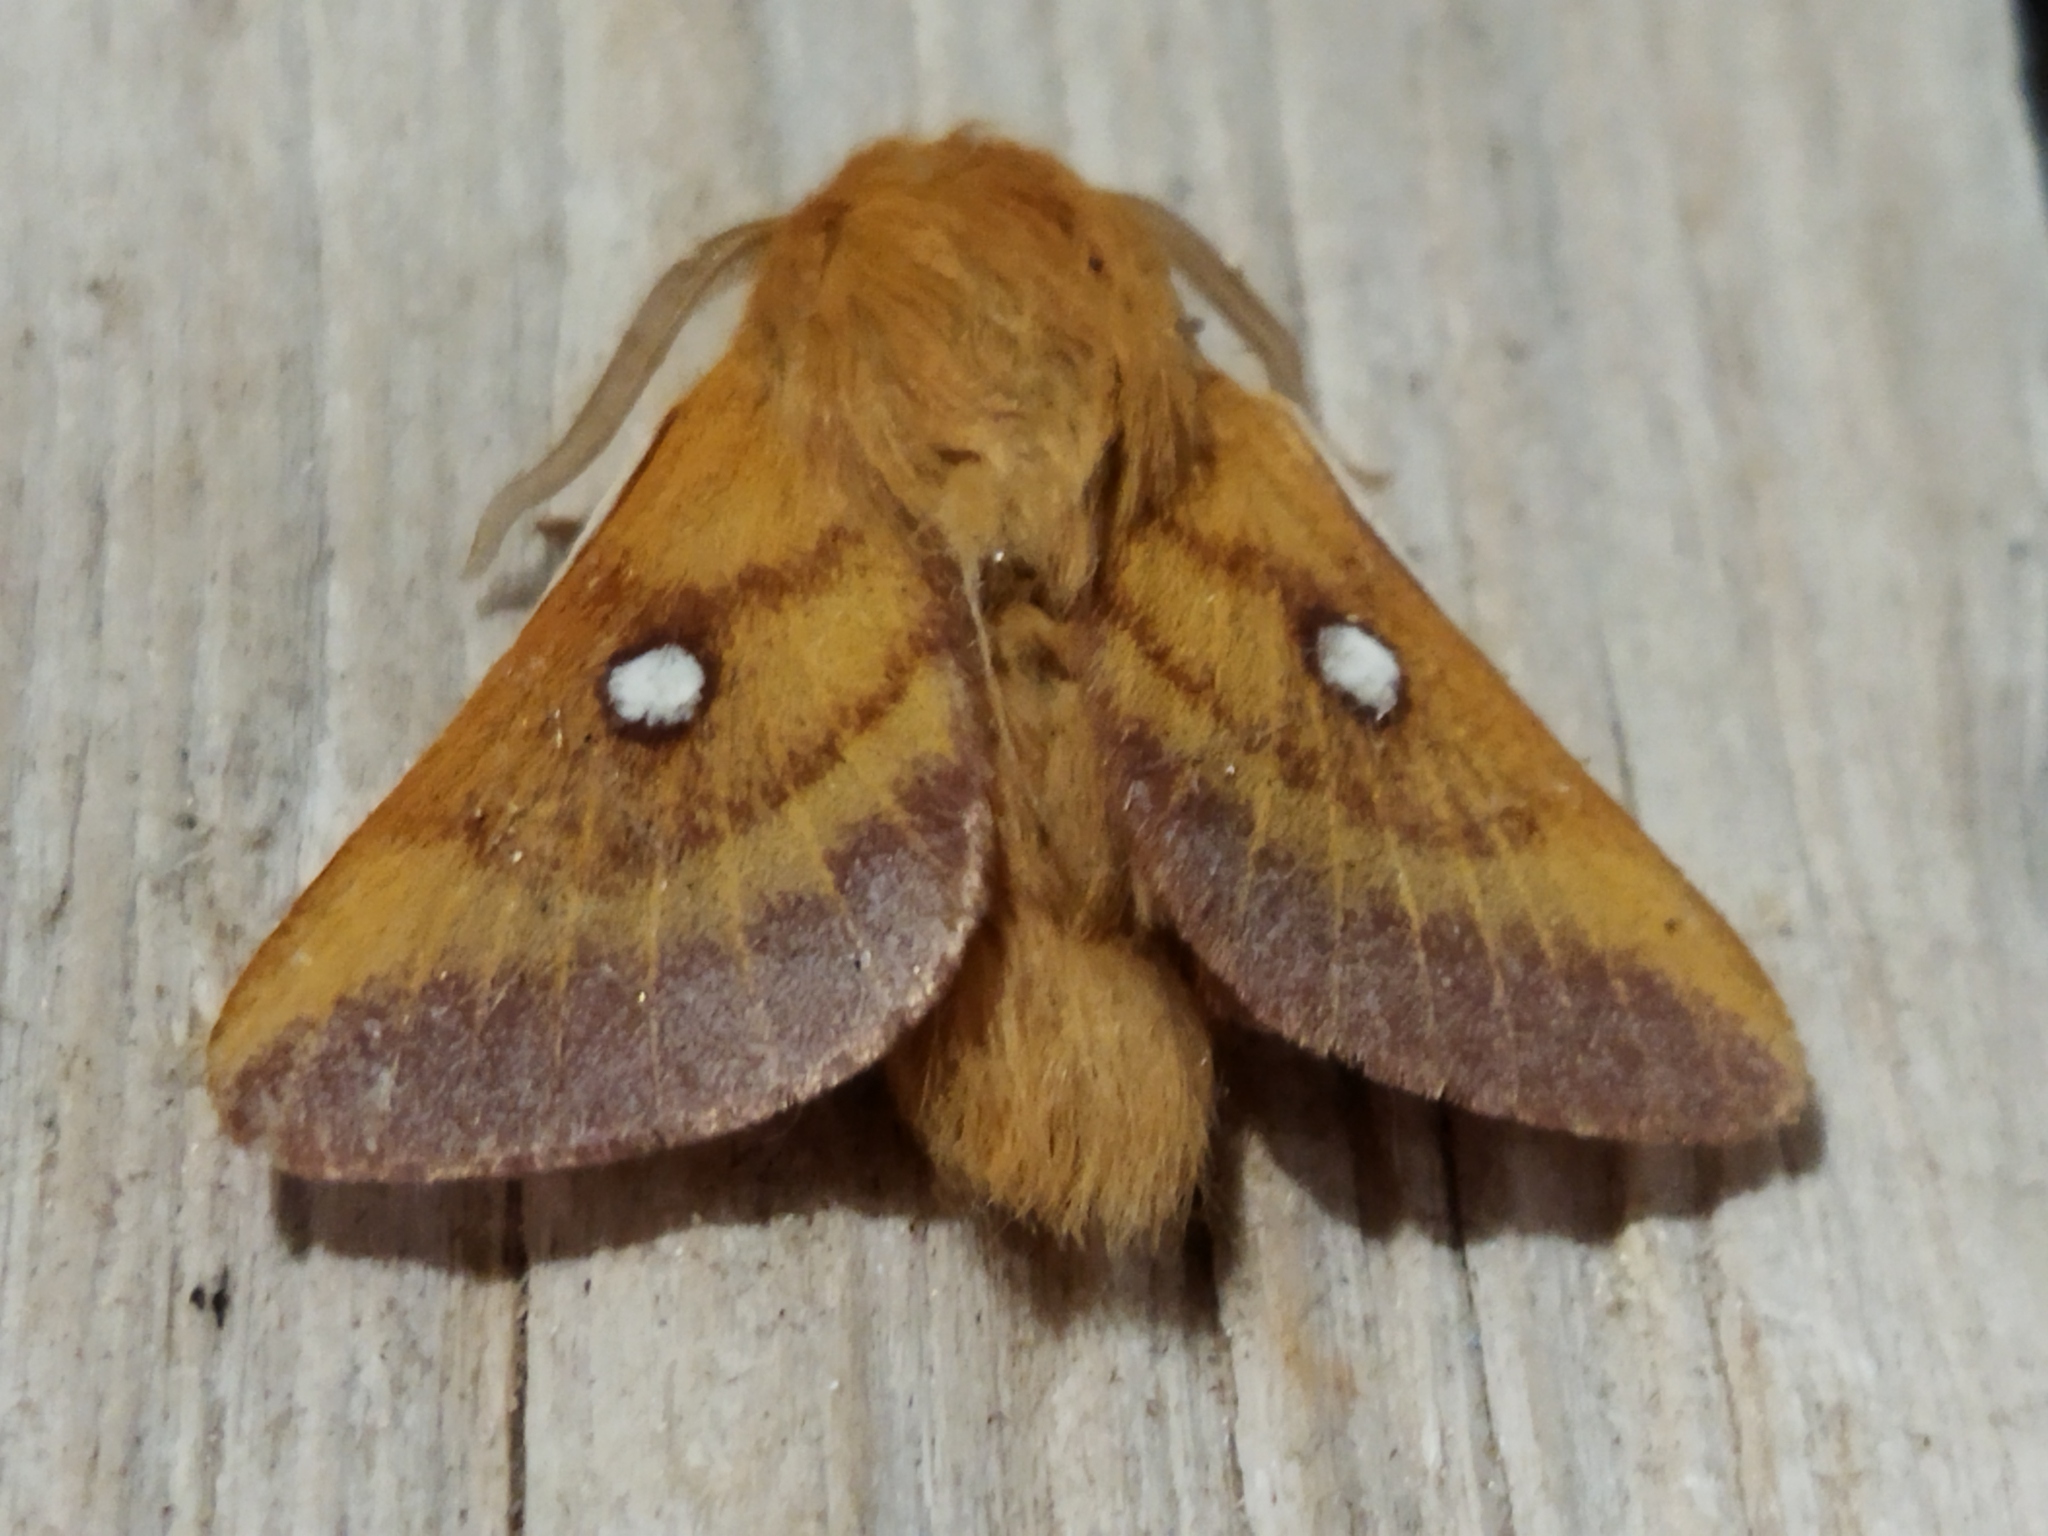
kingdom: Animalia
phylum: Arthropoda
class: Insecta
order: Lepidoptera
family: Lasiocampidae
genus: Eriogaster
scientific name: Eriogaster catax
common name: Eastern eggar
